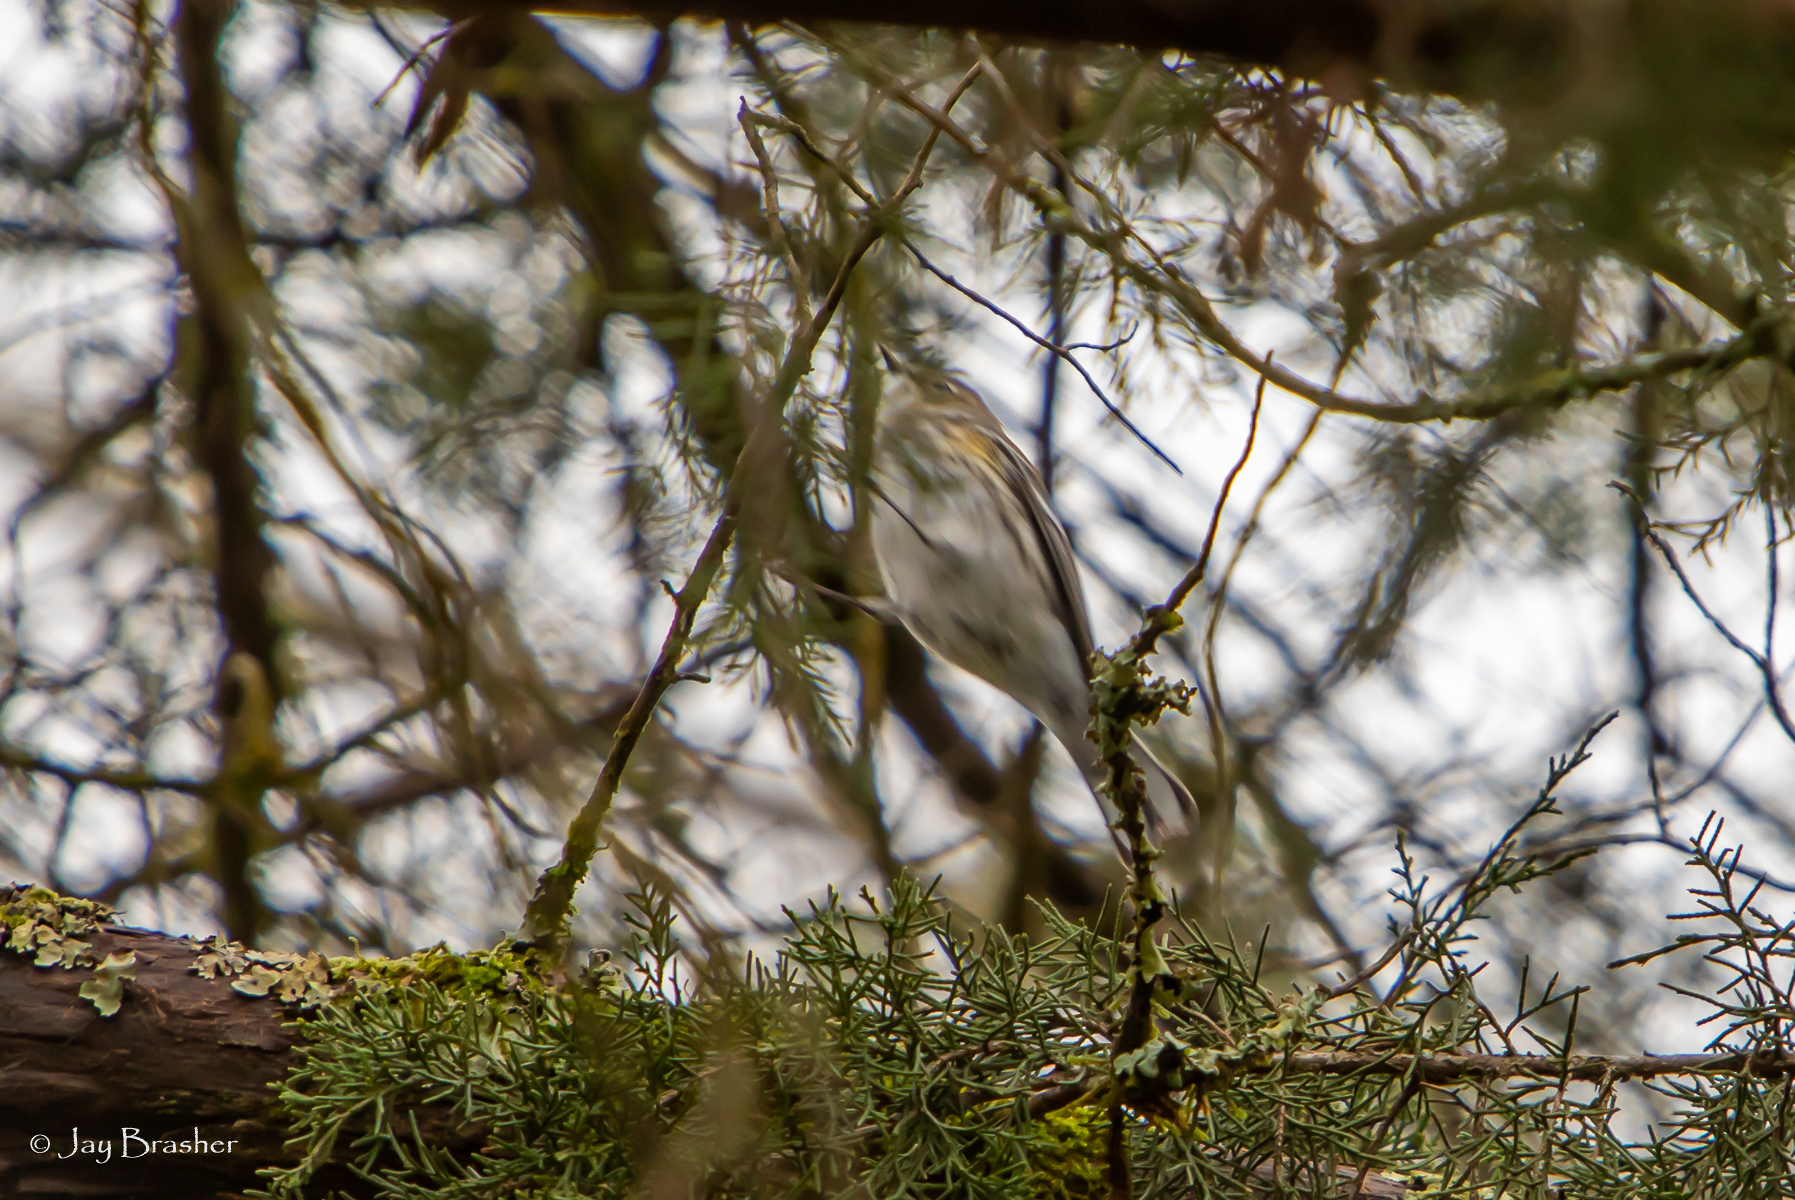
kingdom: Animalia
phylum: Chordata
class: Aves
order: Passeriformes
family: Parulidae
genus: Setophaga
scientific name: Setophaga coronata
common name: Myrtle warbler
